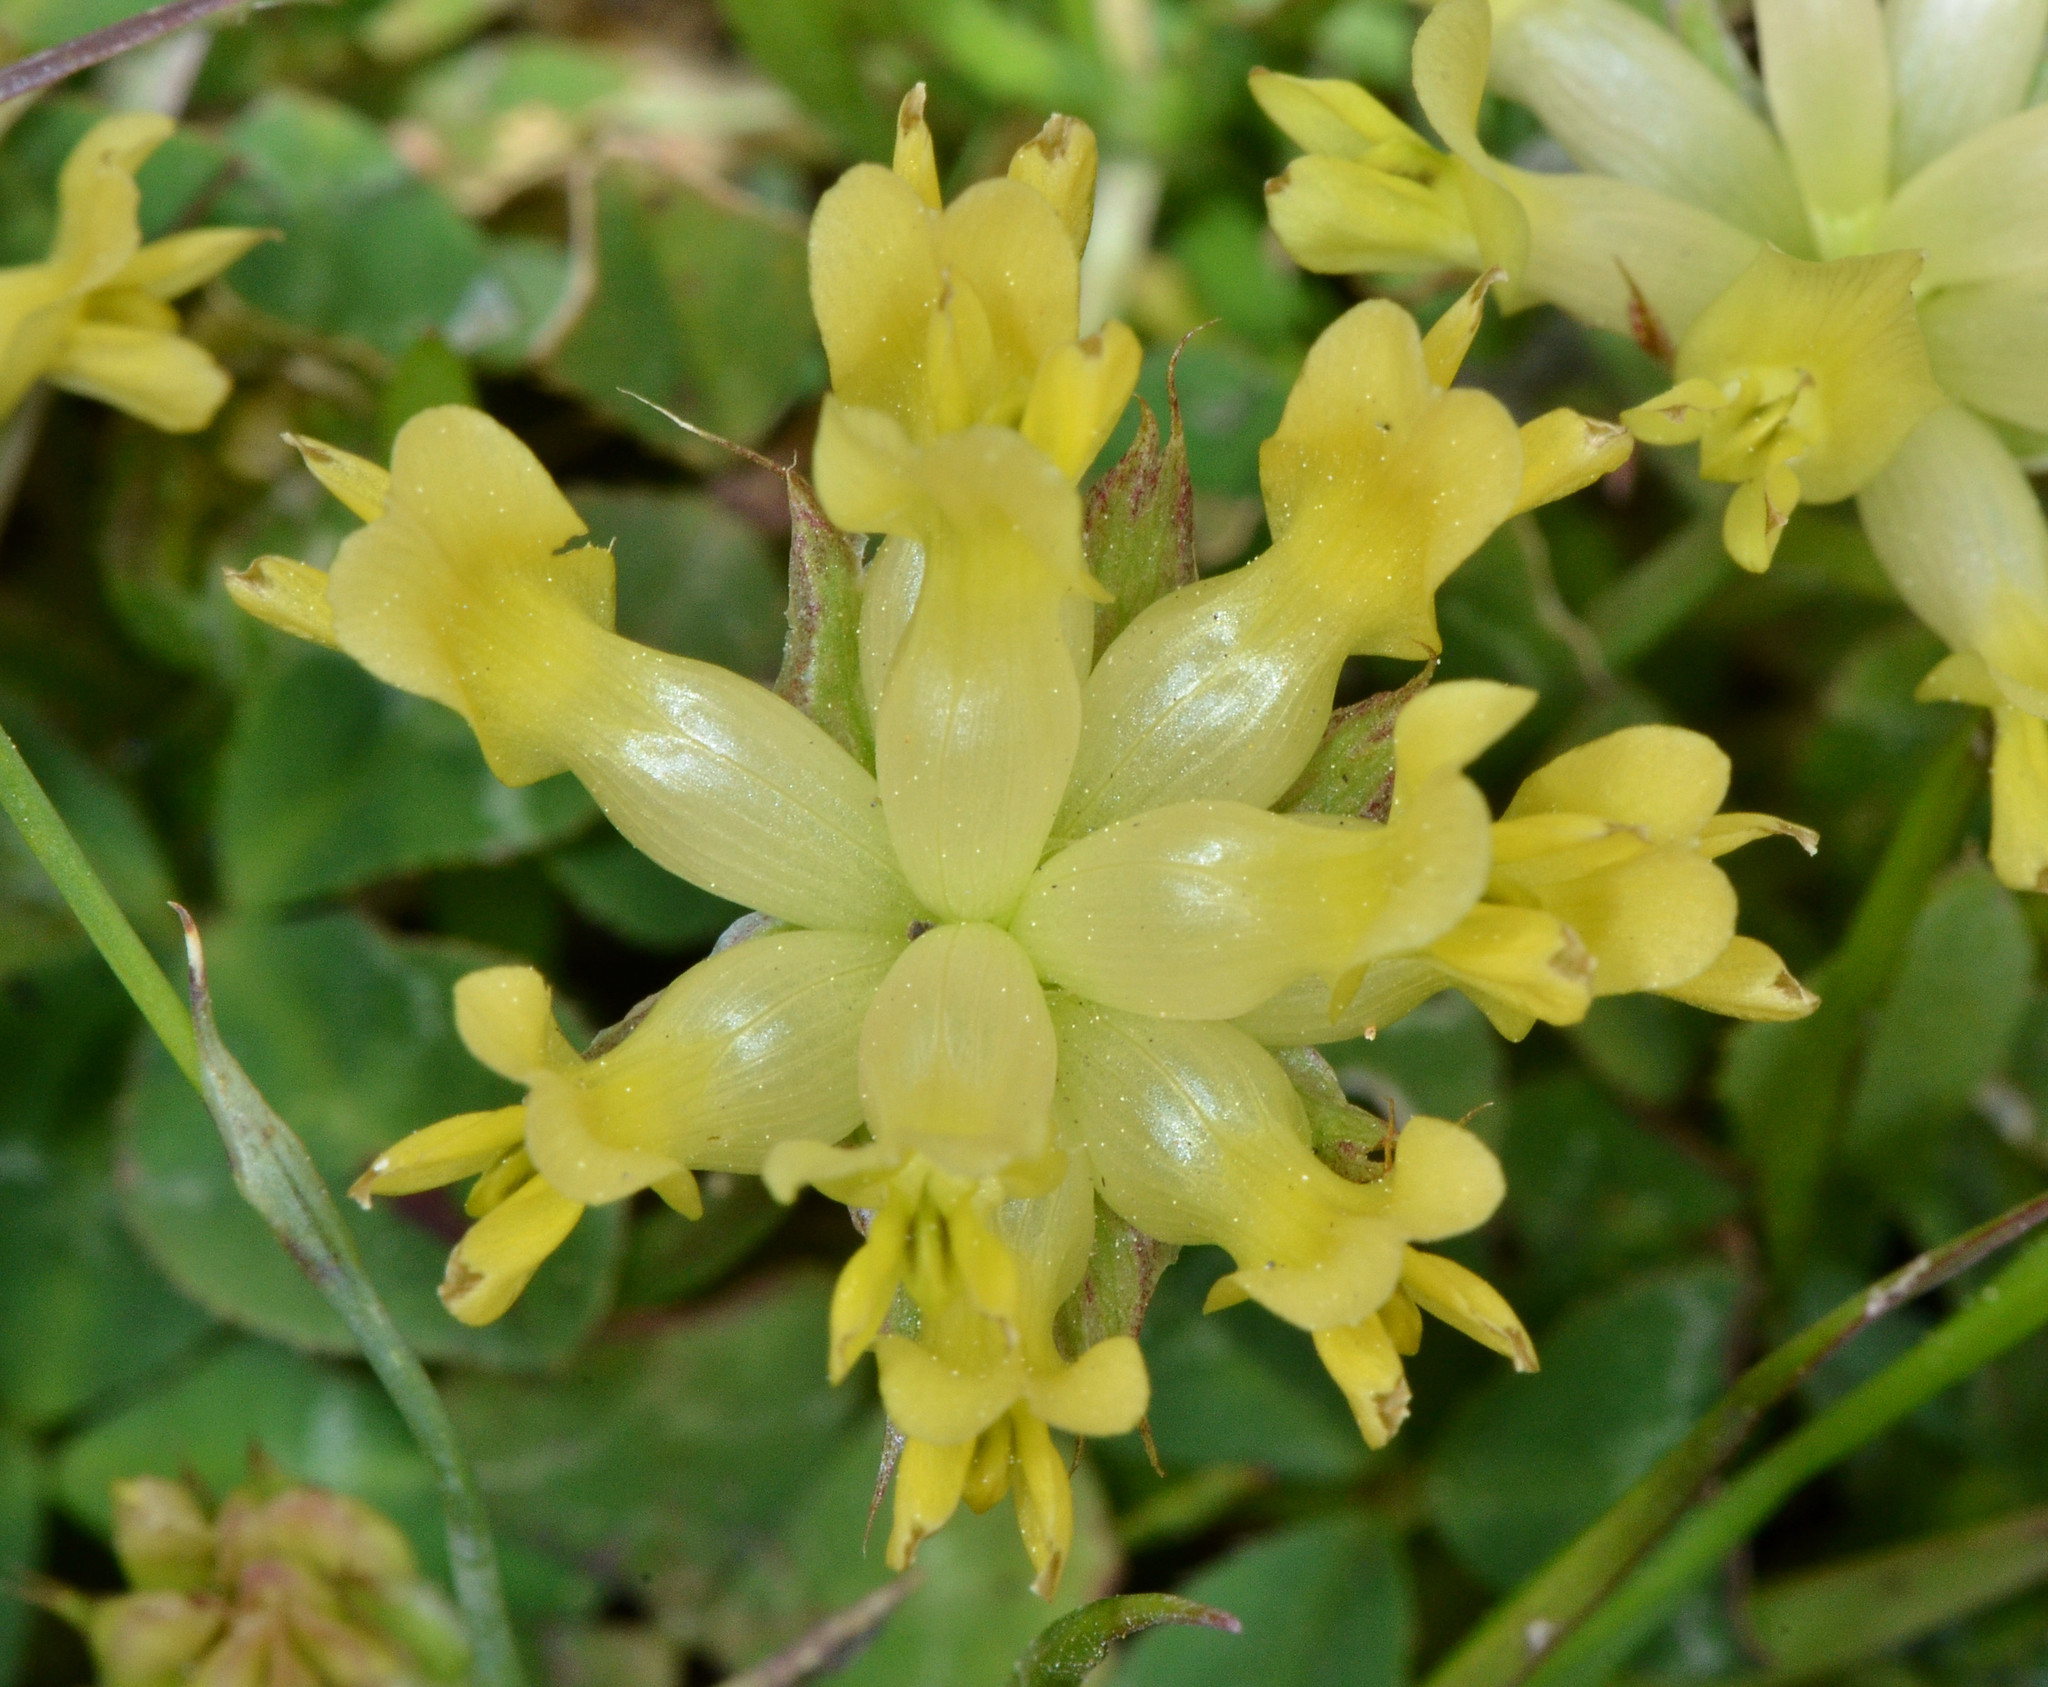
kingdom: Plantae
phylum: Tracheophyta
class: Magnoliopsida
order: Fabales
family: Fabaceae
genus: Trifolium
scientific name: Trifolium fucatum
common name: Puff clover
